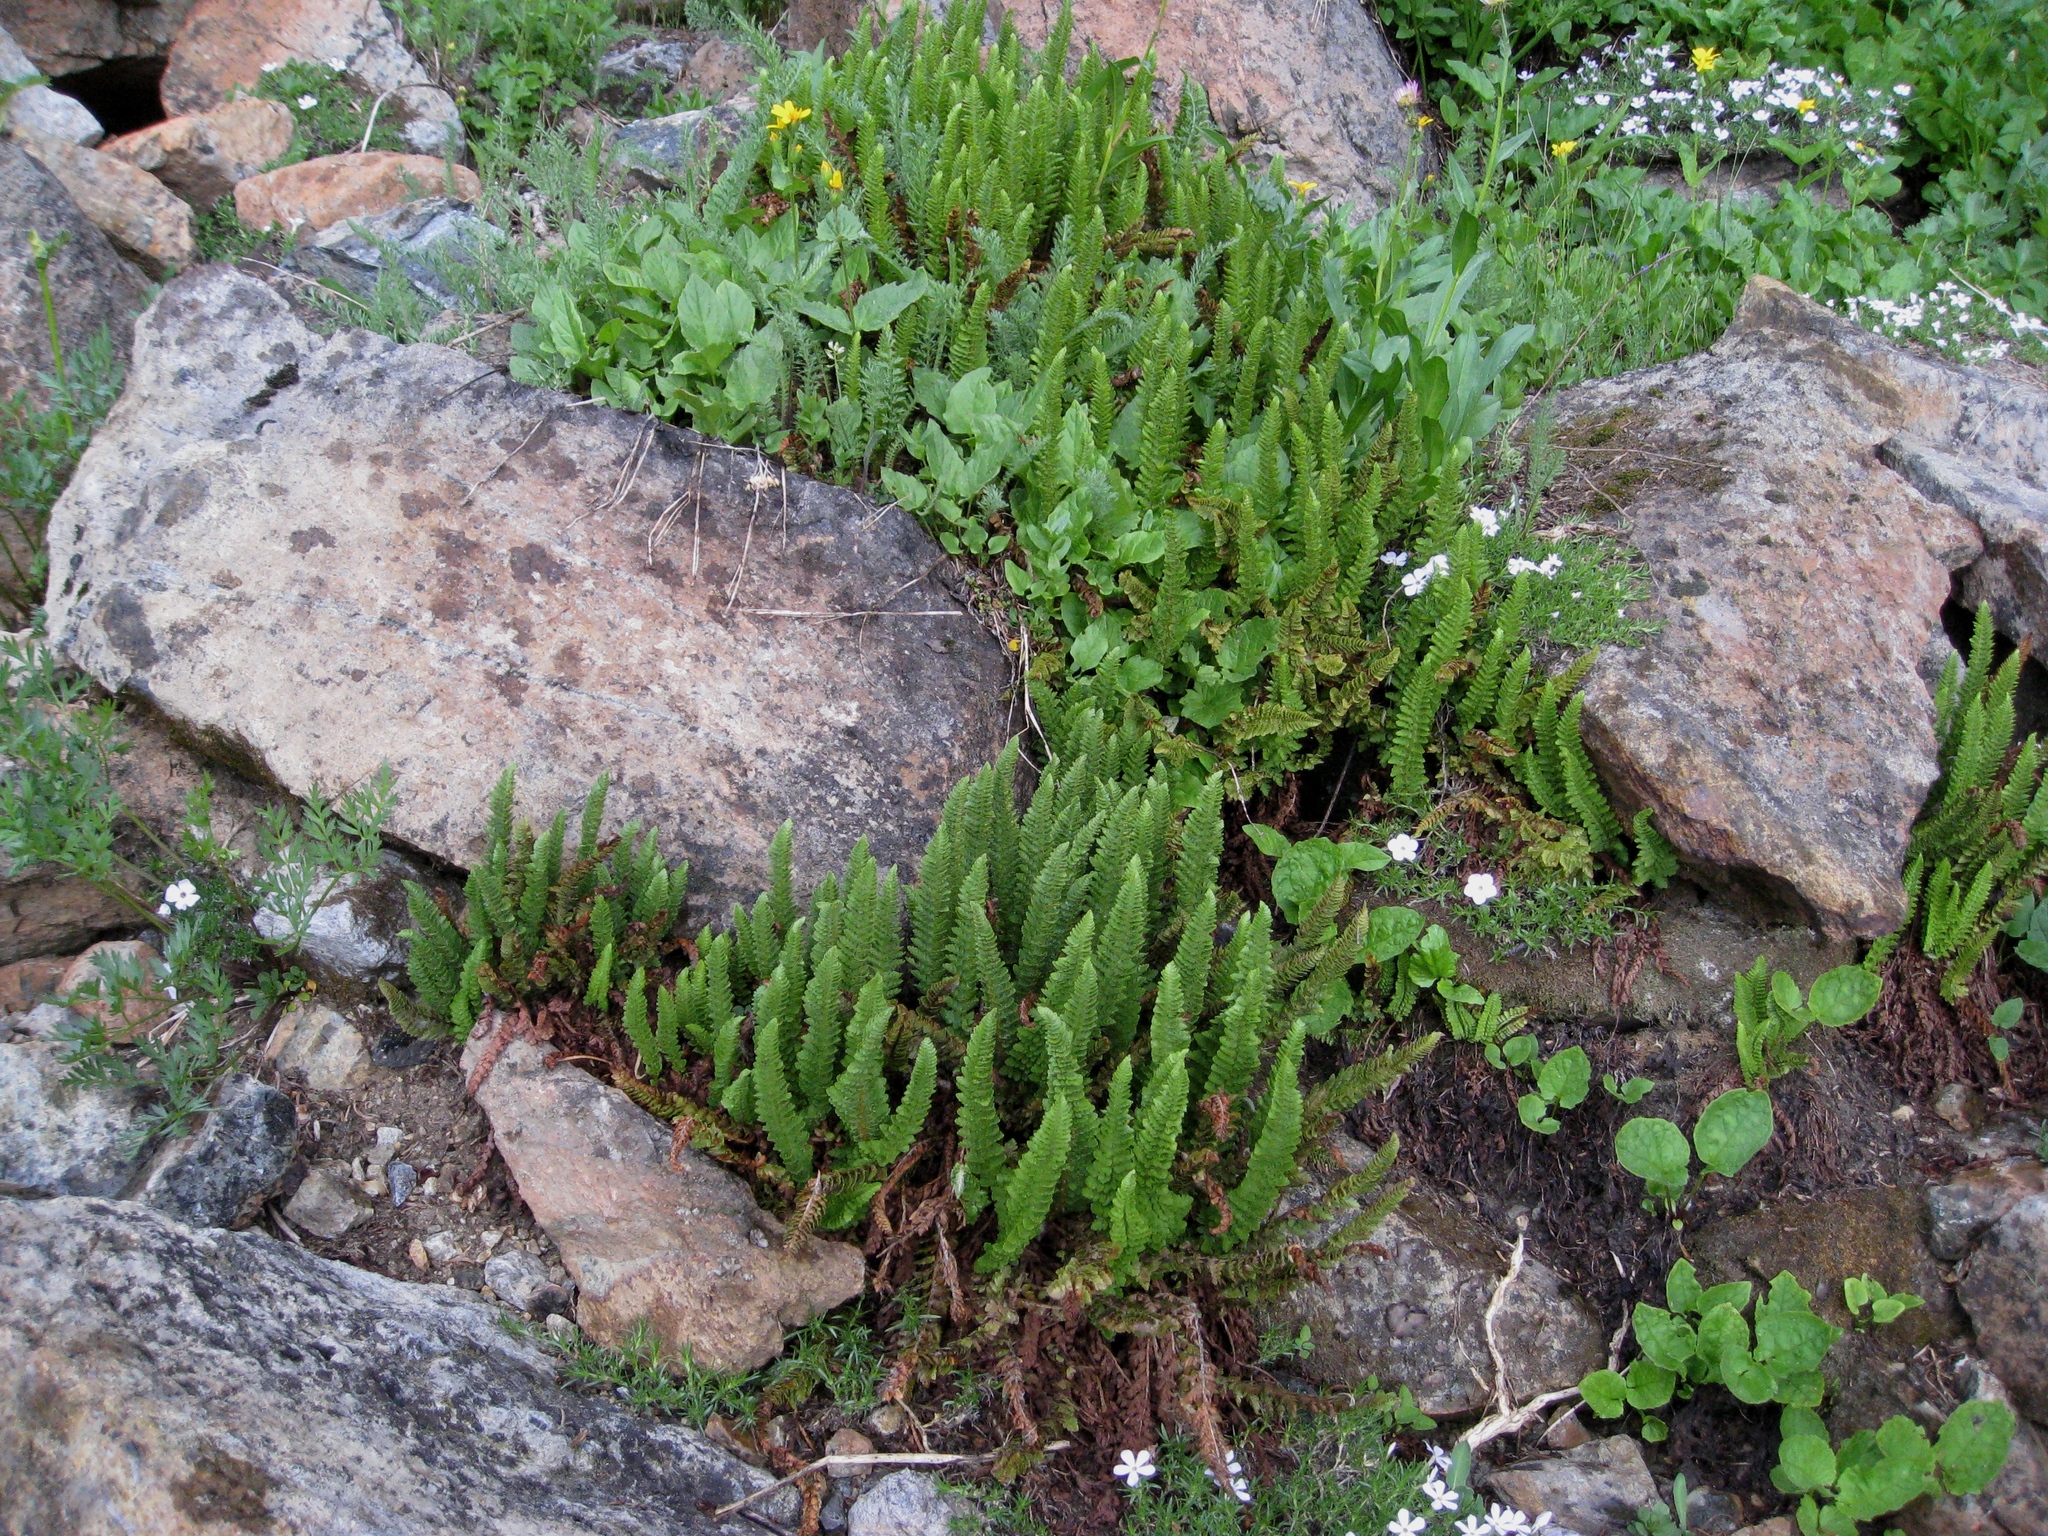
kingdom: Plantae
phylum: Tracheophyta
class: Polypodiopsida
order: Polypodiales
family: Dryopteridaceae
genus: Polystichum
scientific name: Polystichum lemmonii
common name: Lemmon's holly fern
